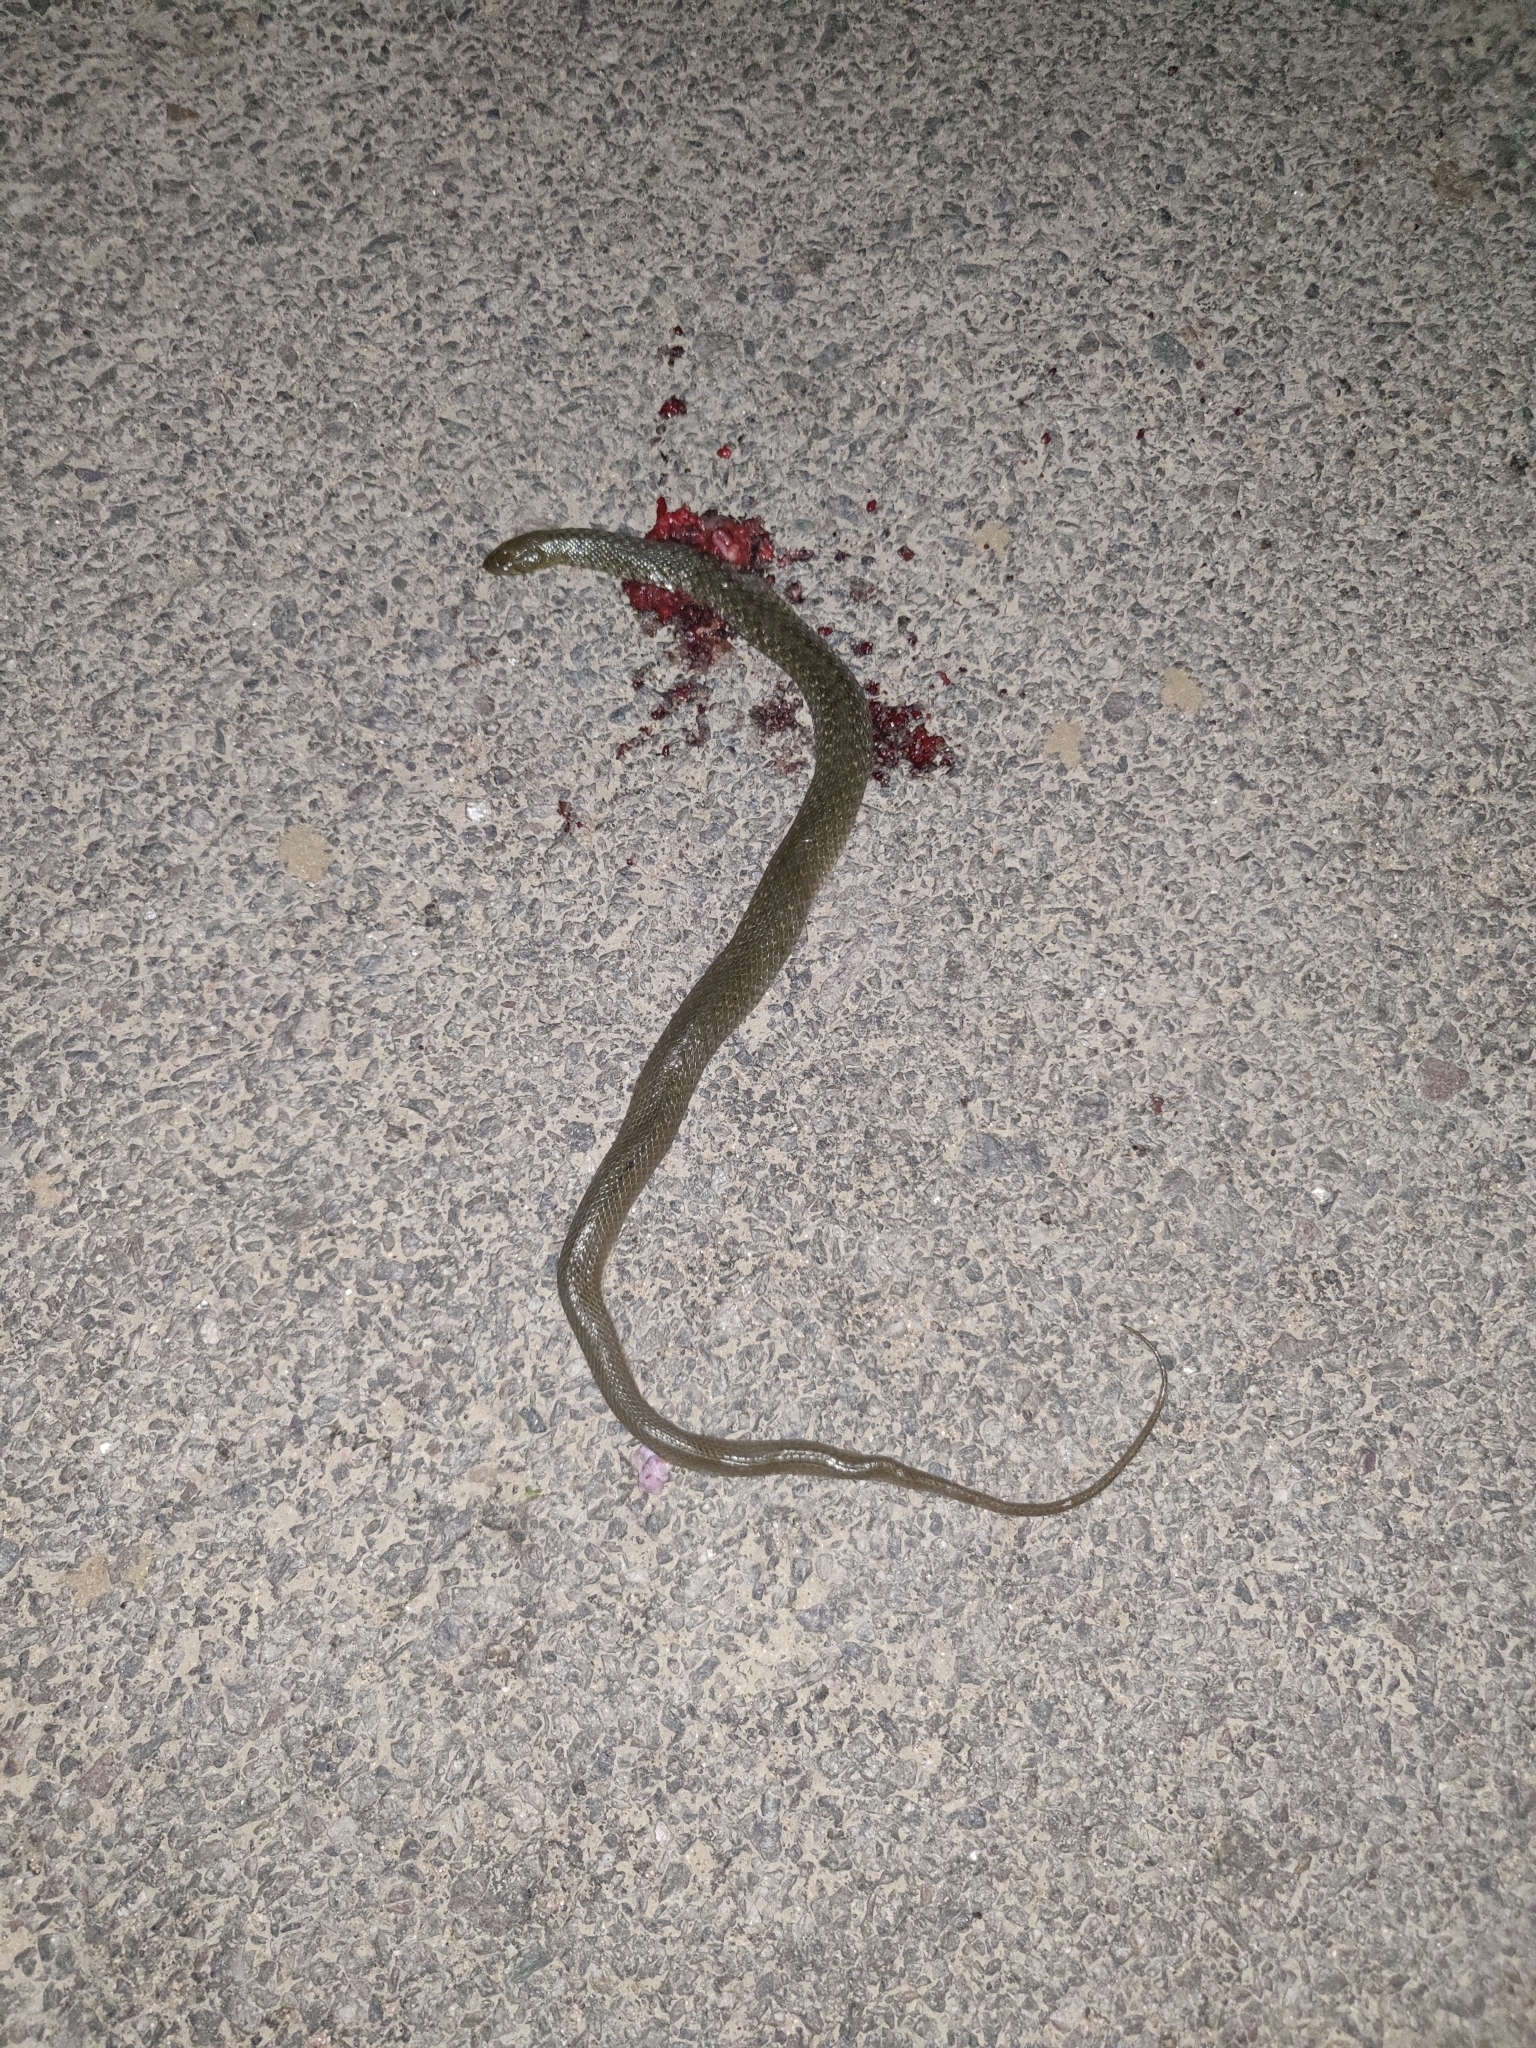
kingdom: Animalia
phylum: Chordata
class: Squamata
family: Colubridae
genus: Fowlea
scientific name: Fowlea piscator
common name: Asiatic water snake
